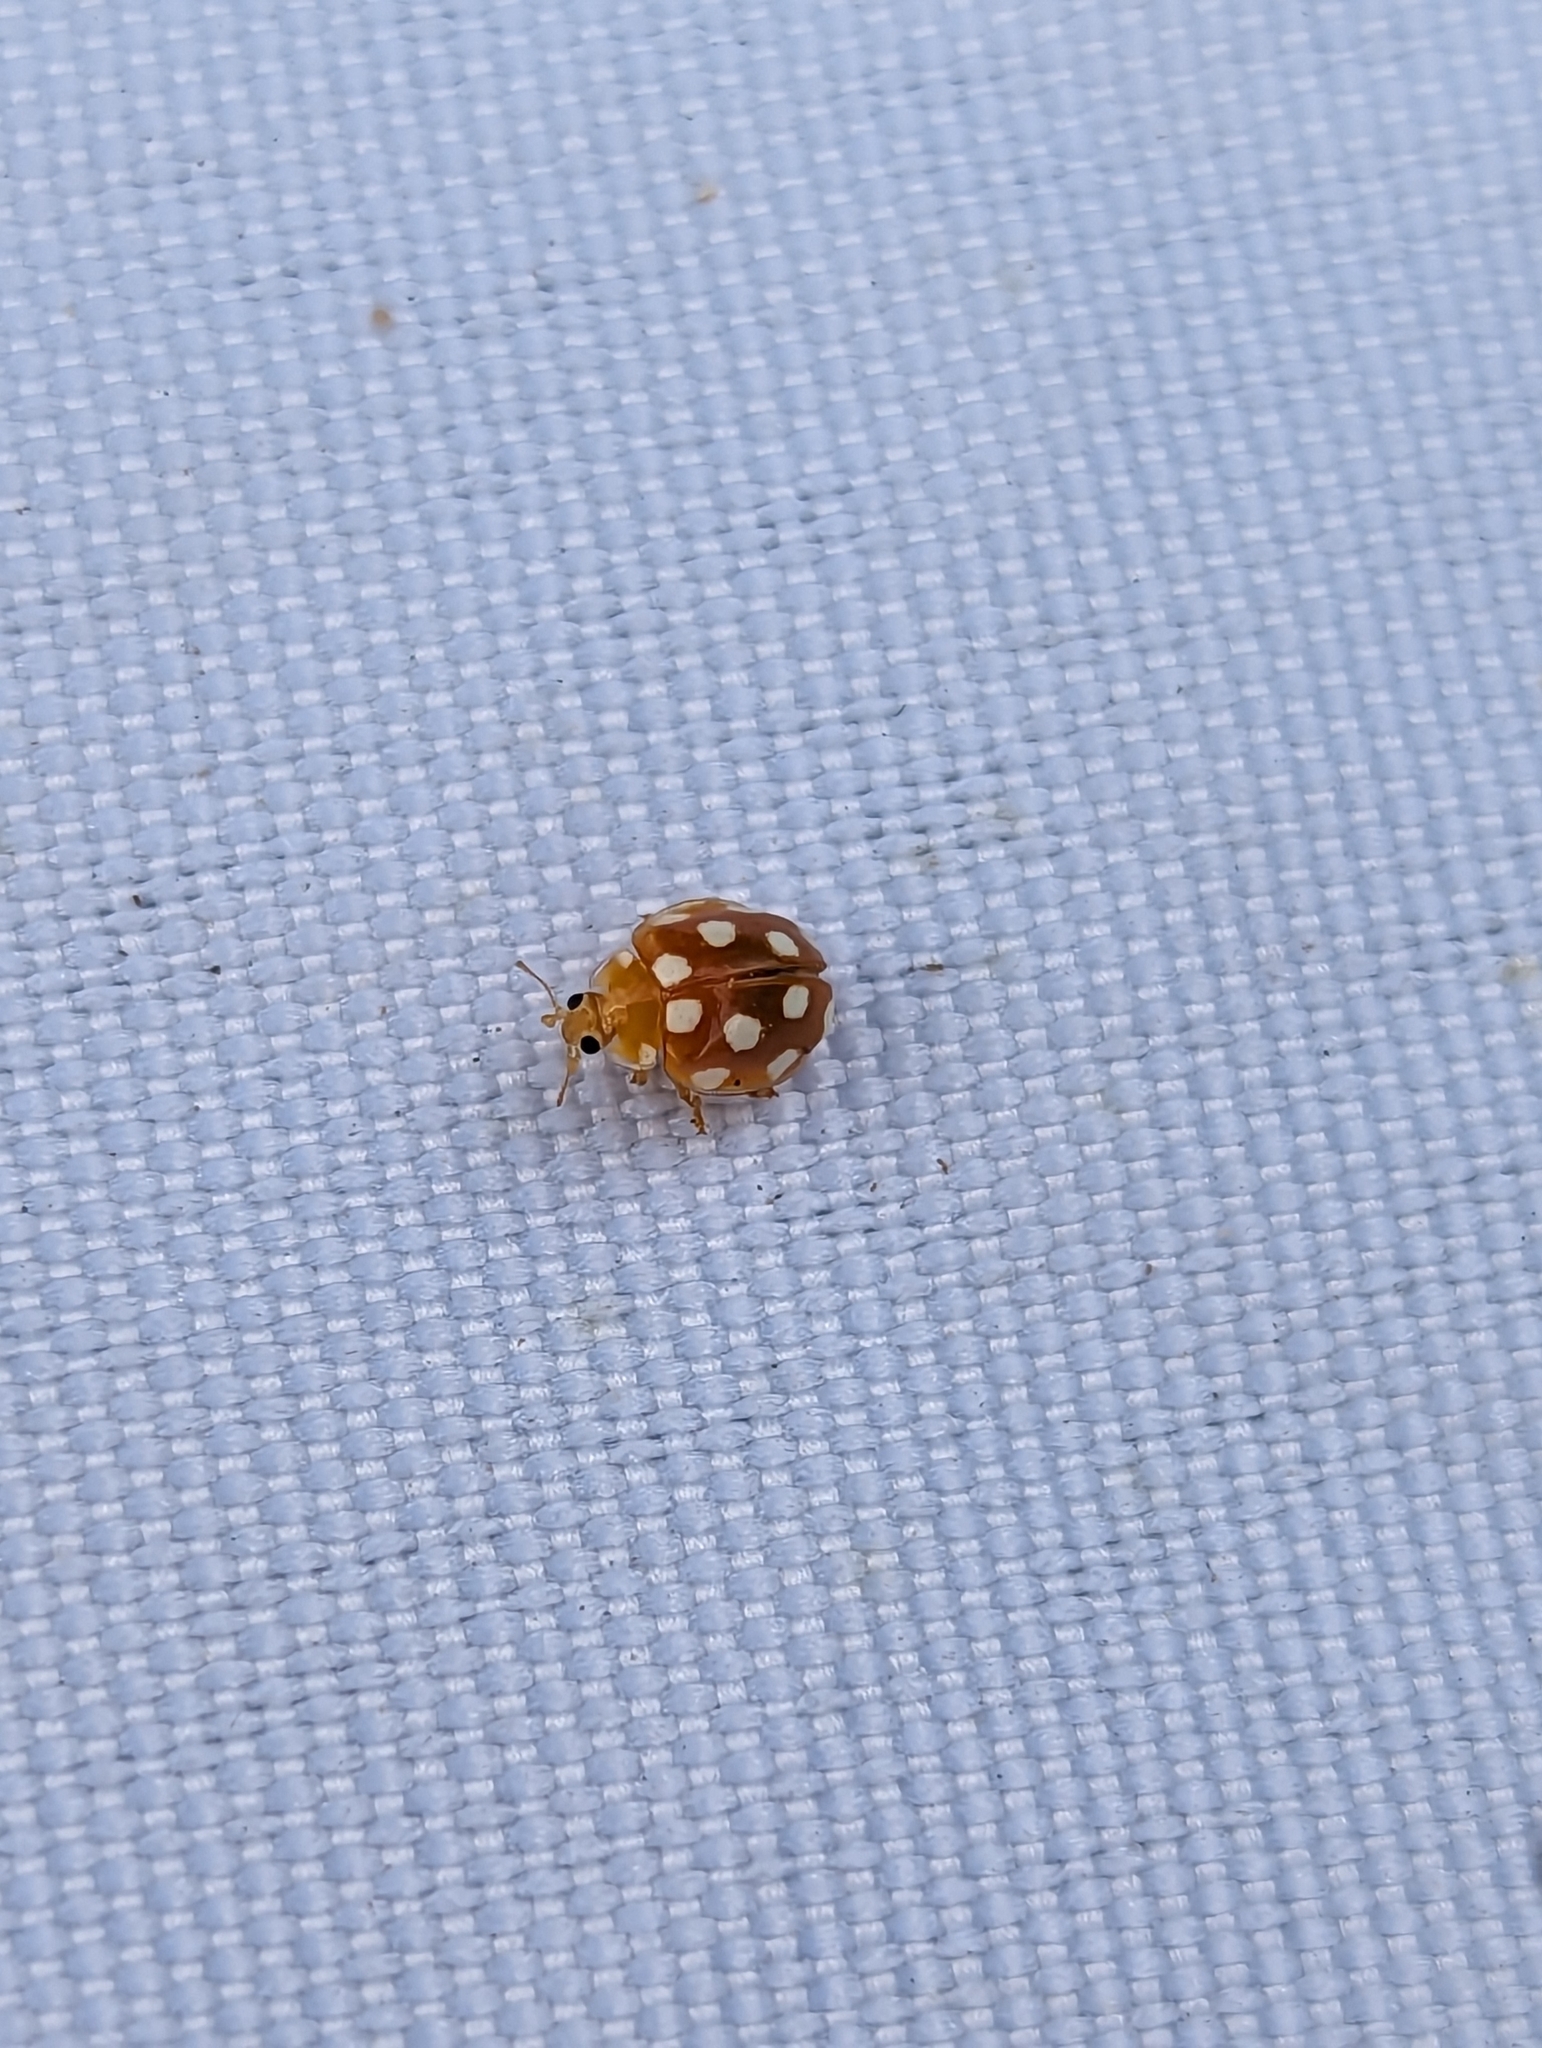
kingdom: Animalia
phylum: Arthropoda
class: Insecta
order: Coleoptera
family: Coccinellidae
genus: Vibidia
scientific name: Vibidia duodecimguttata
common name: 12-spot ladybird
